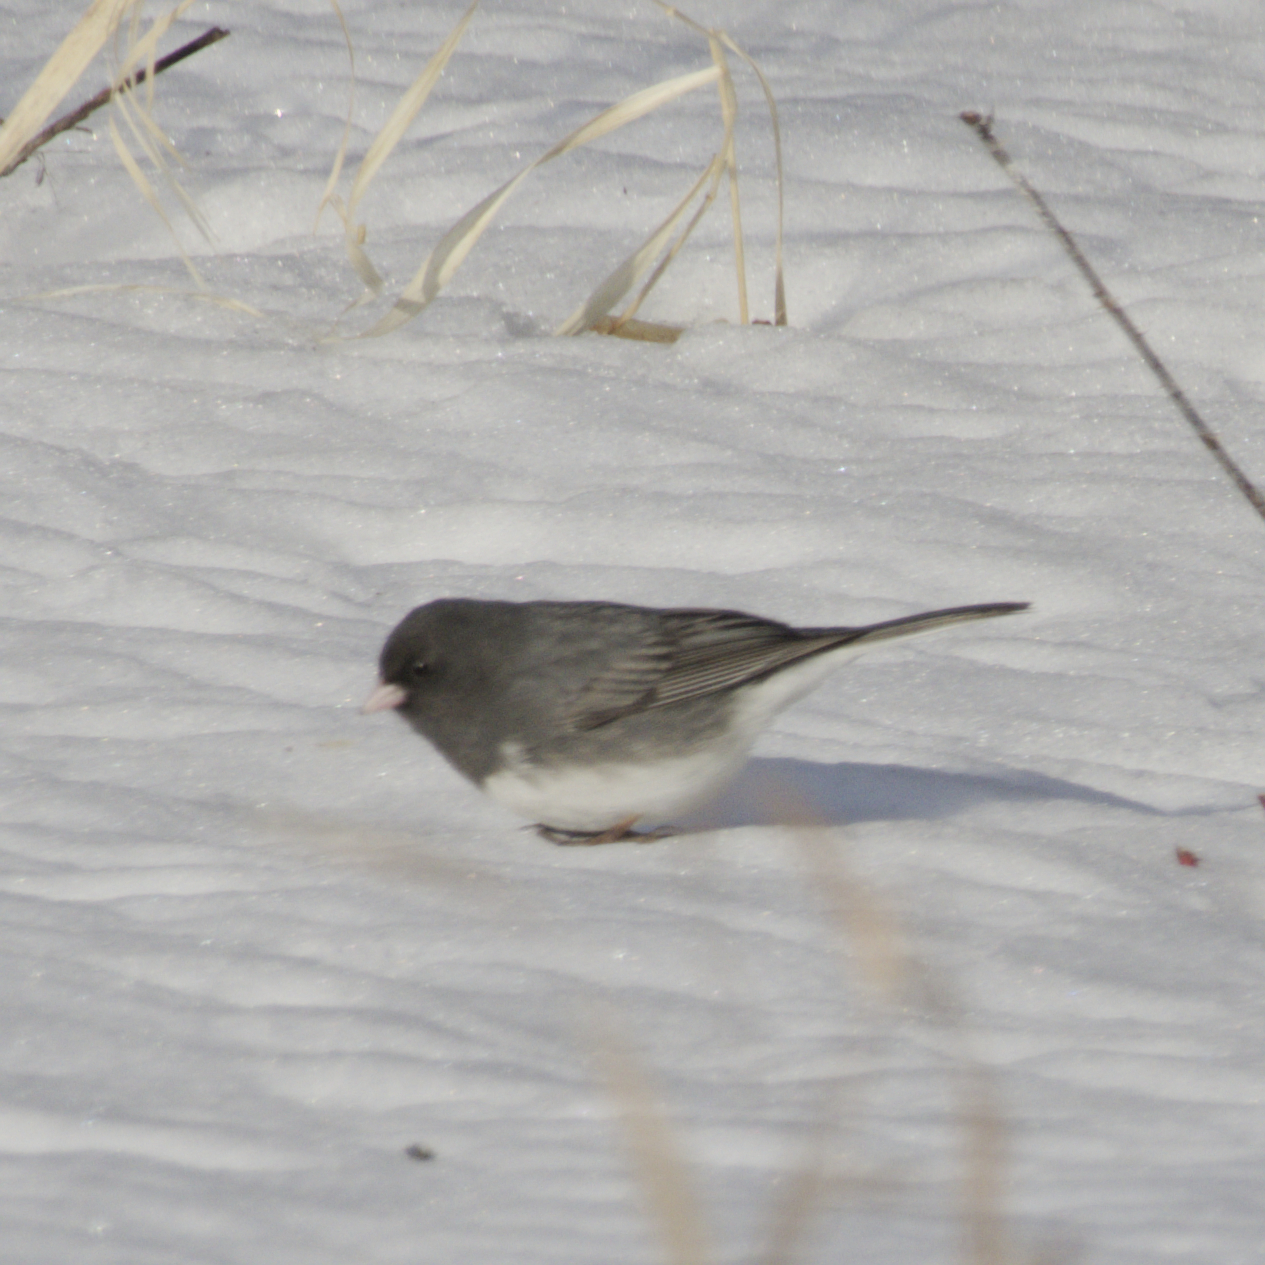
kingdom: Animalia
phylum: Chordata
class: Aves
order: Passeriformes
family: Passerellidae
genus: Junco
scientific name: Junco hyemalis
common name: Dark-eyed junco
